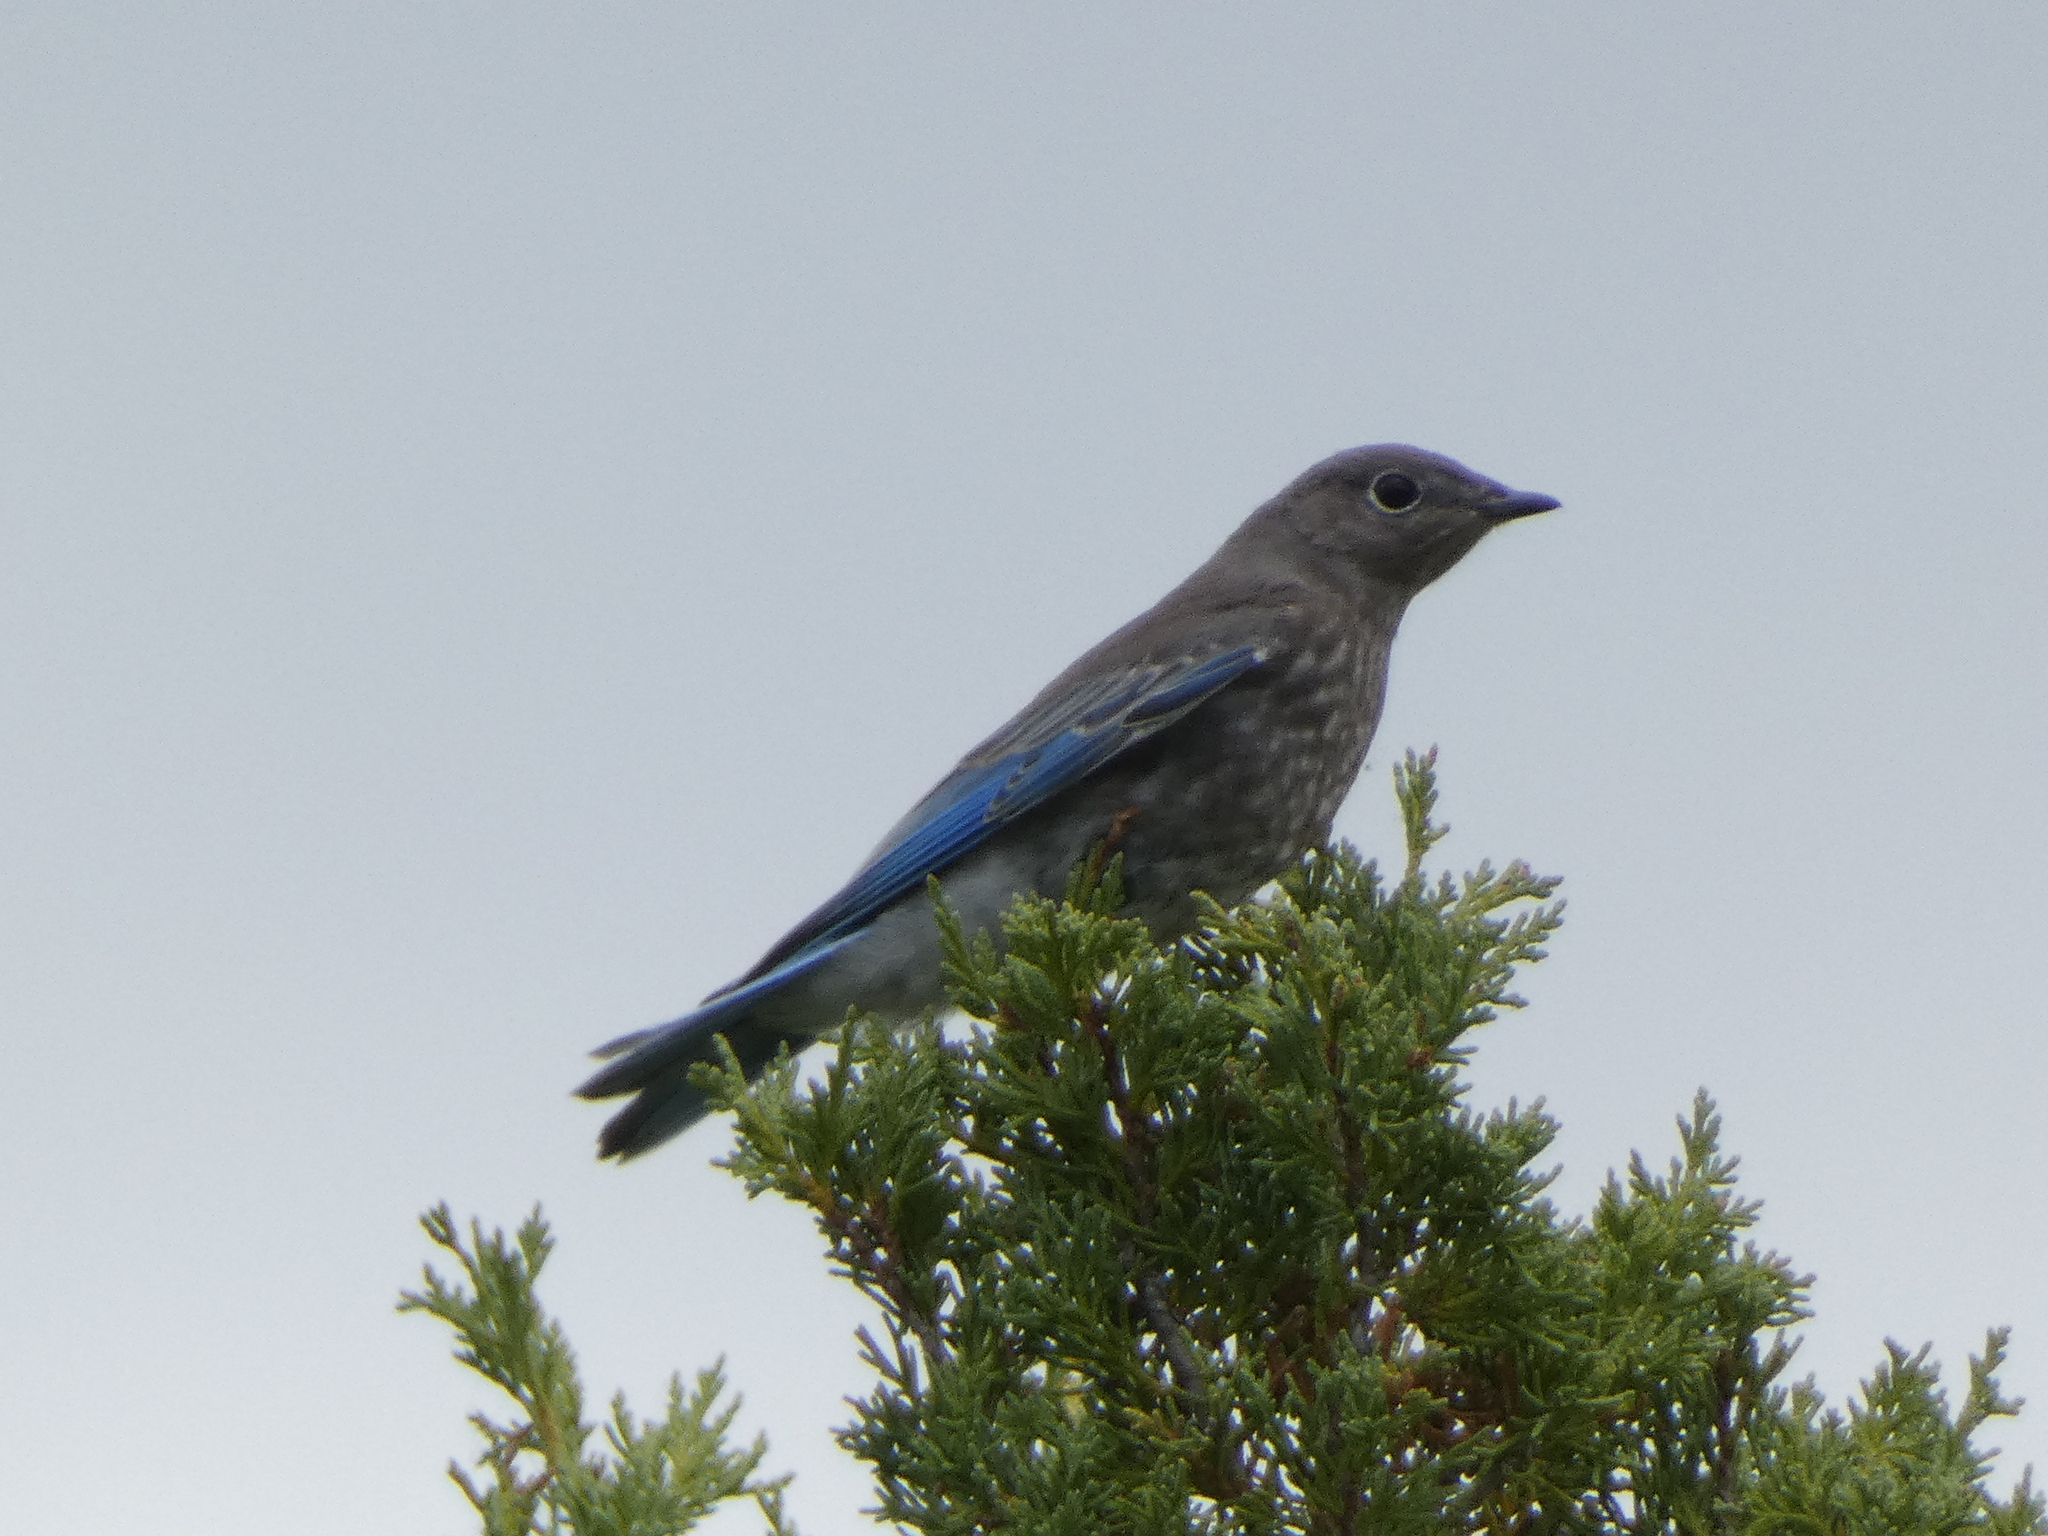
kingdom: Animalia
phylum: Chordata
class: Aves
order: Passeriformes
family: Turdidae
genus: Sialia
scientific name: Sialia currucoides
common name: Mountain bluebird
